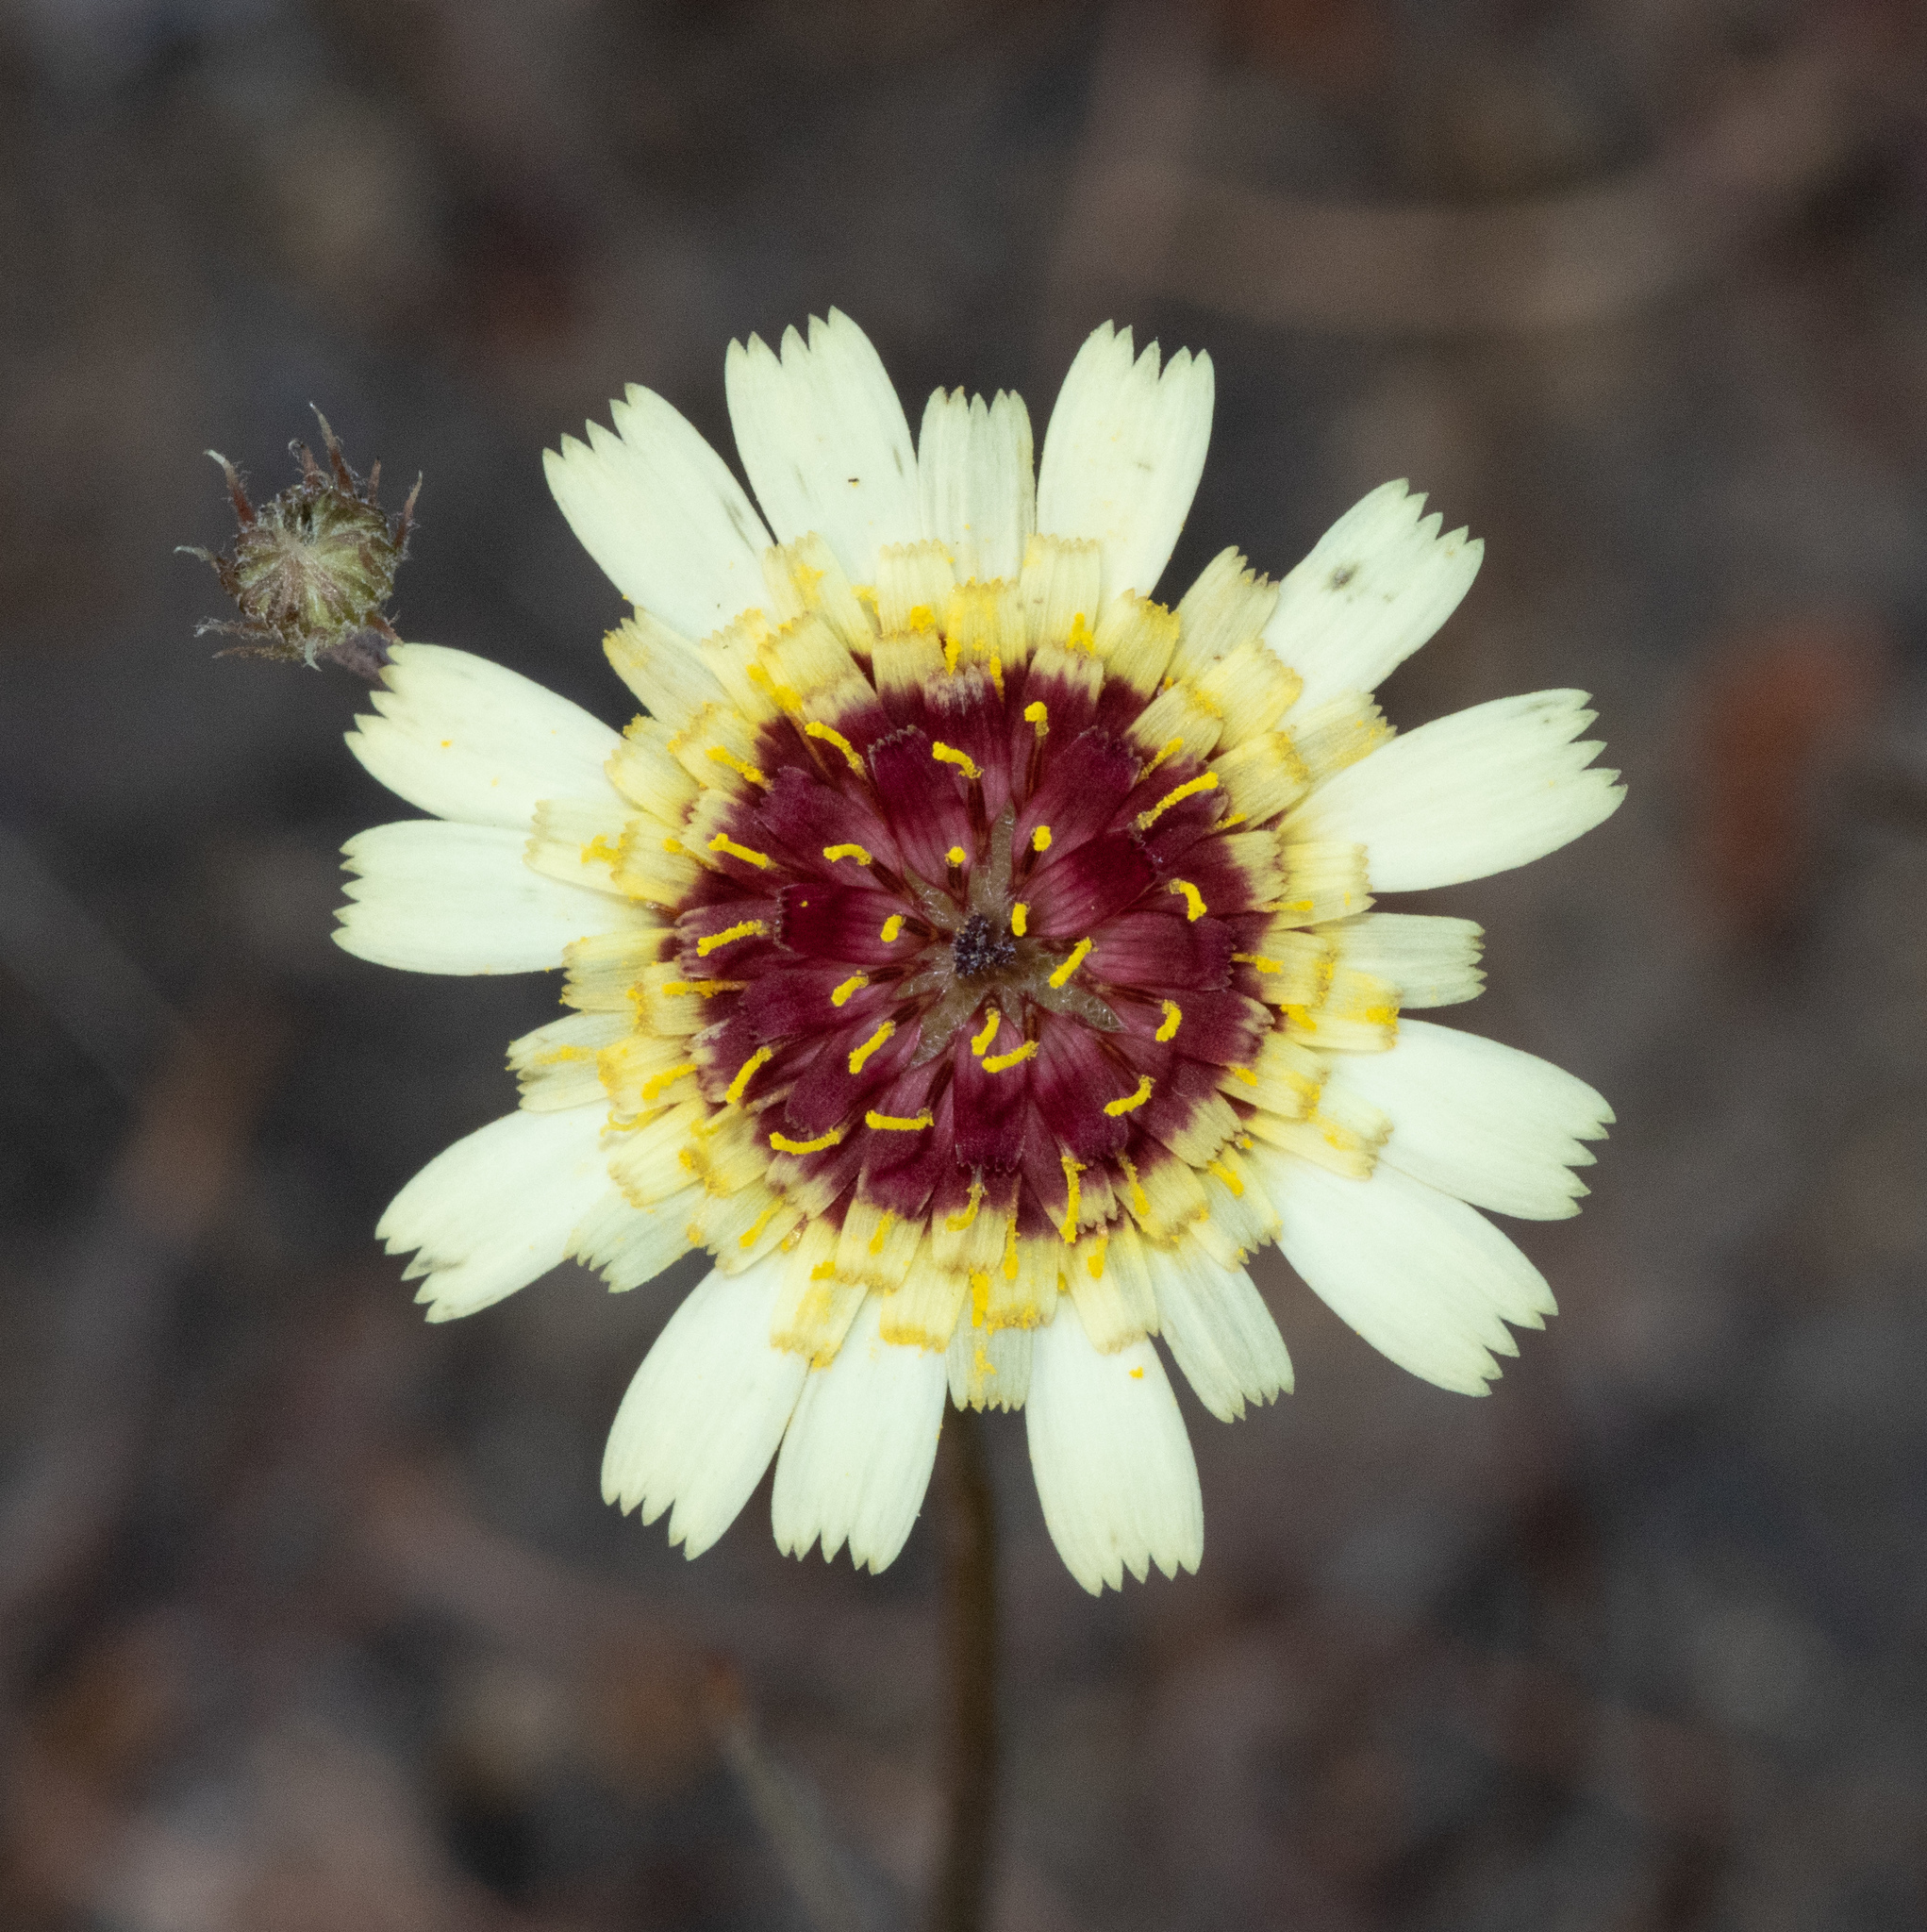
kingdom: Plantae
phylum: Tracheophyta
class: Magnoliopsida
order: Asterales
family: Asteraceae
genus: Tolpis
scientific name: Tolpis barbata
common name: Yellow hawkweed
